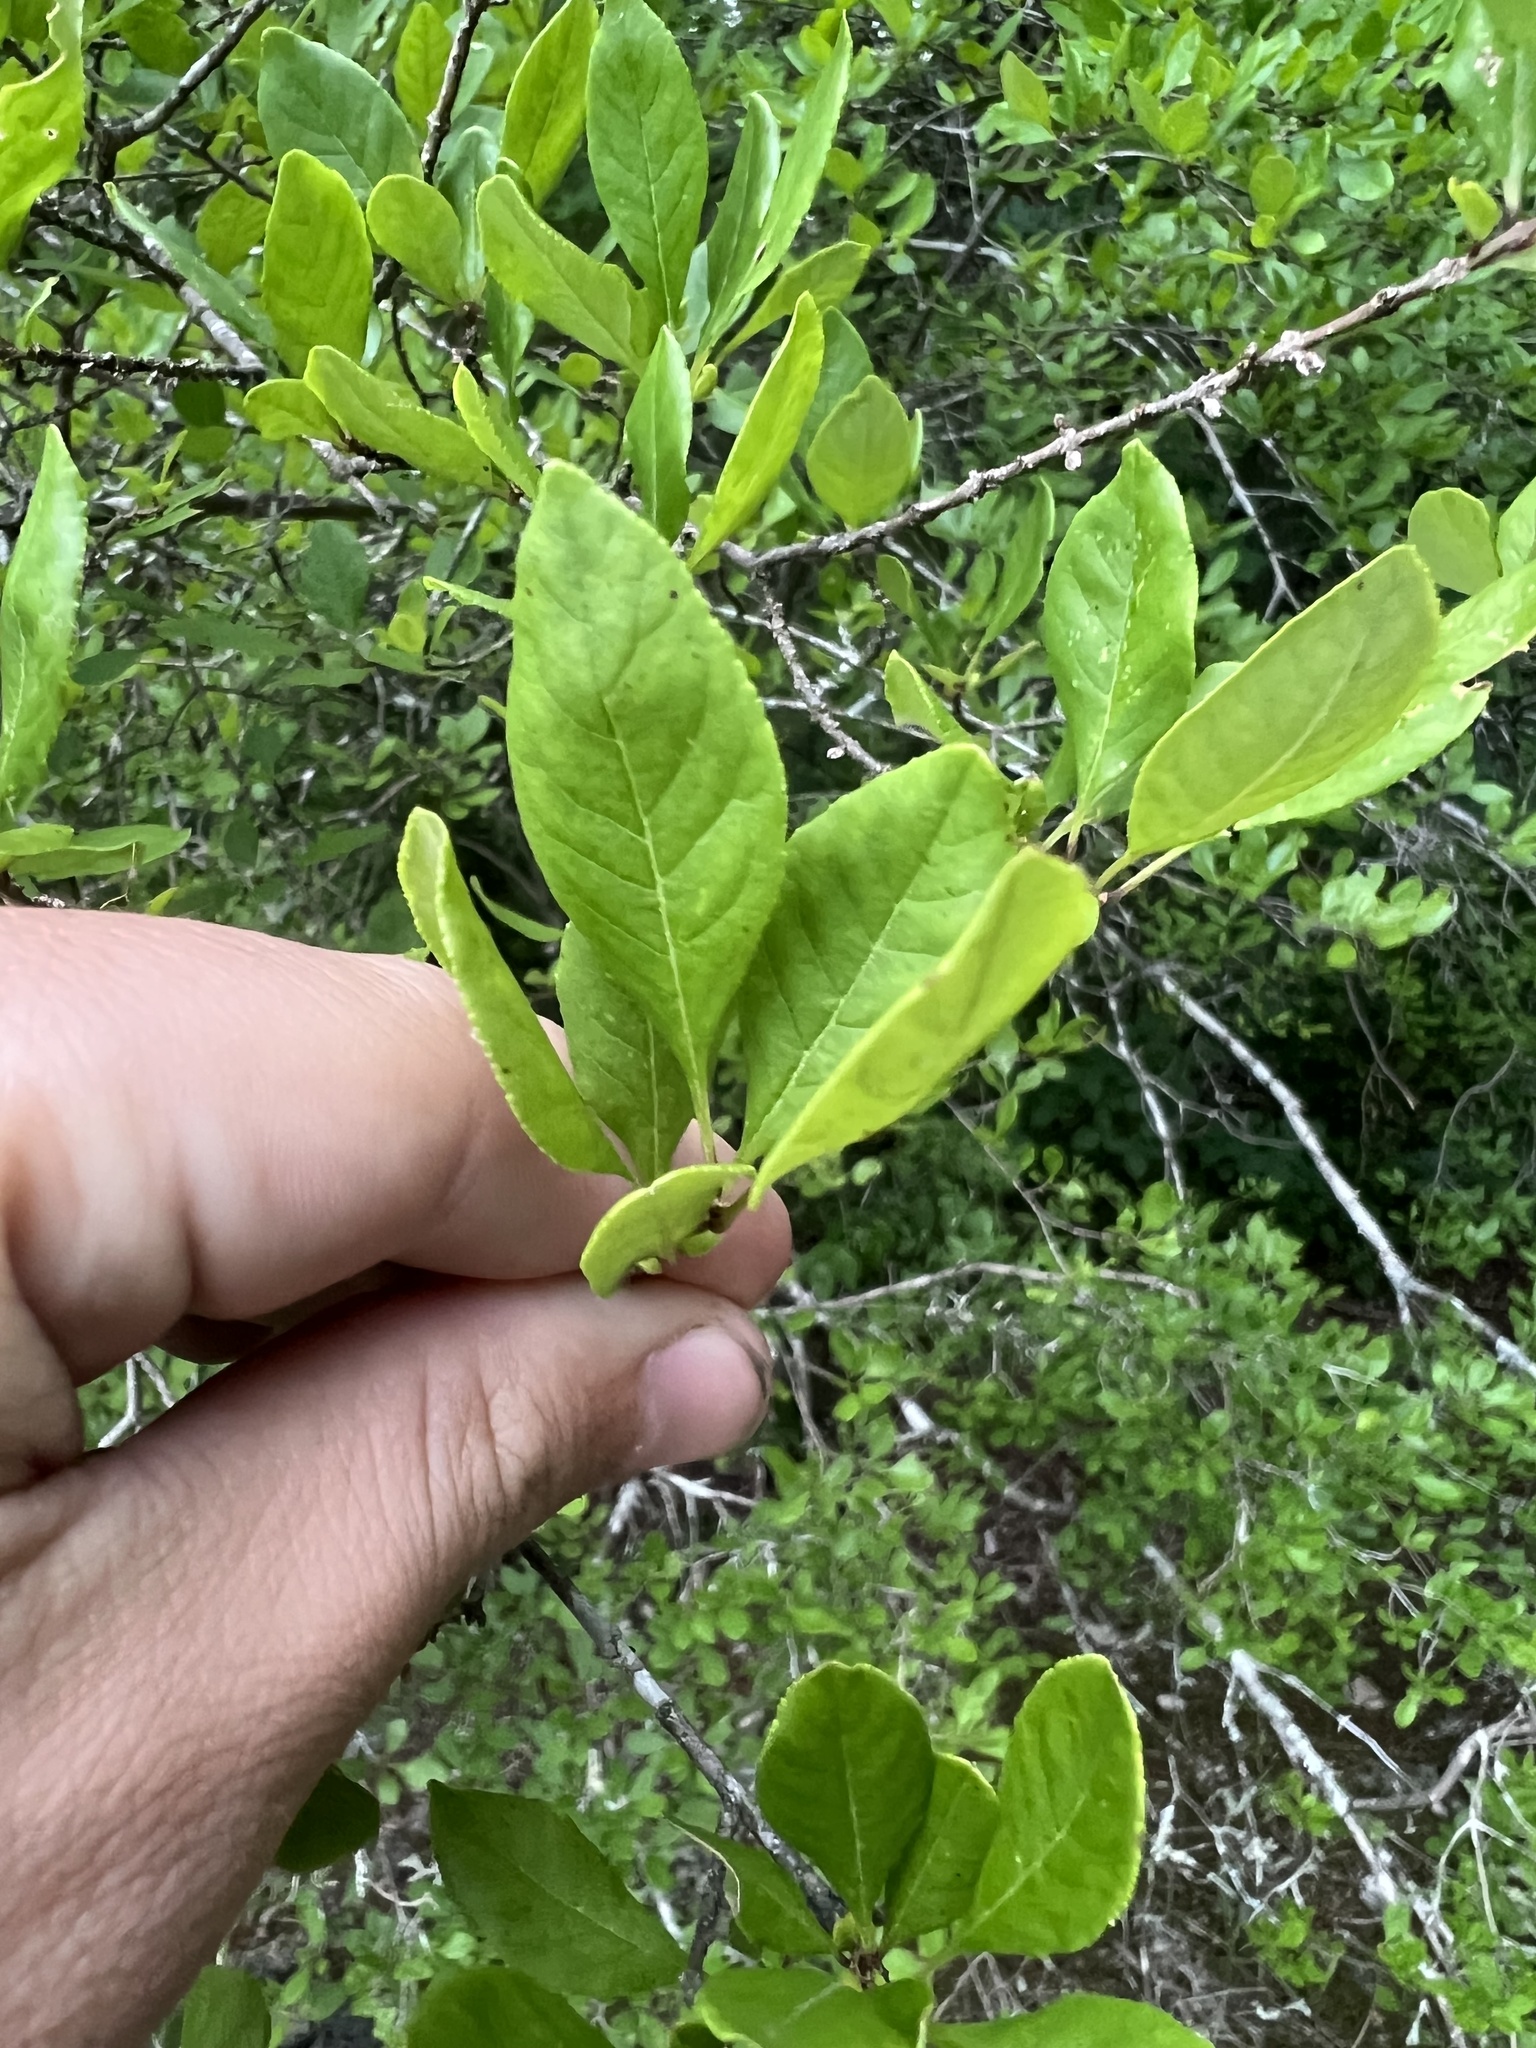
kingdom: Plantae
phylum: Tracheophyta
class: Magnoliopsida
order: Lamiales
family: Oleaceae
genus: Forestiera
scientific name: Forestiera ligustrina
